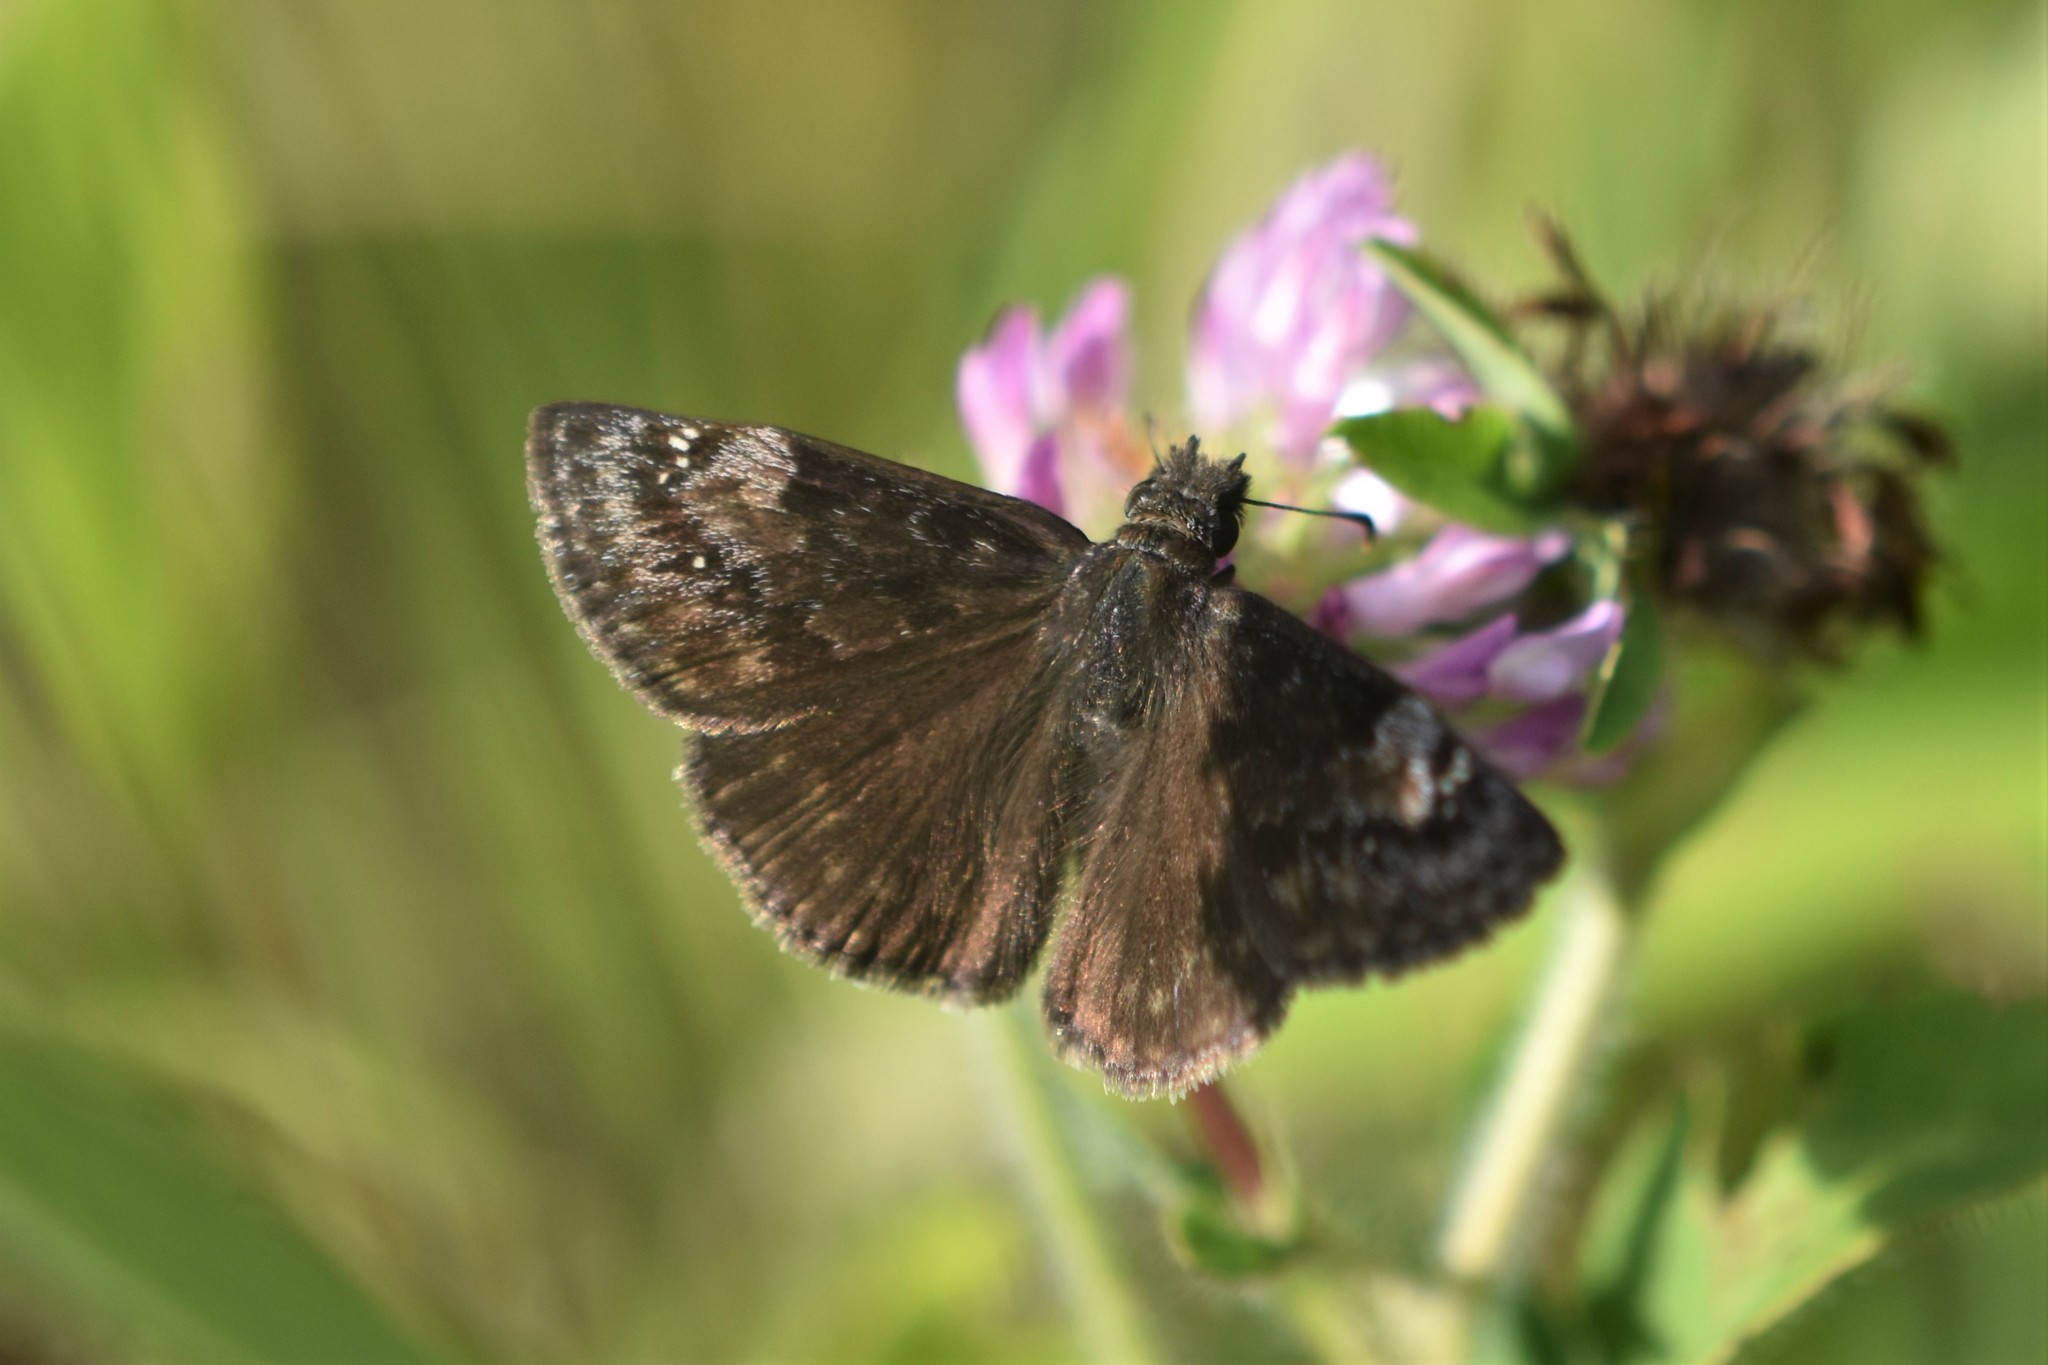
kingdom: Animalia
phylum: Arthropoda
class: Insecta
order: Lepidoptera
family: Hesperiidae
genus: Erynnis
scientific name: Erynnis baptisiae
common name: Wild indigo duskywing
